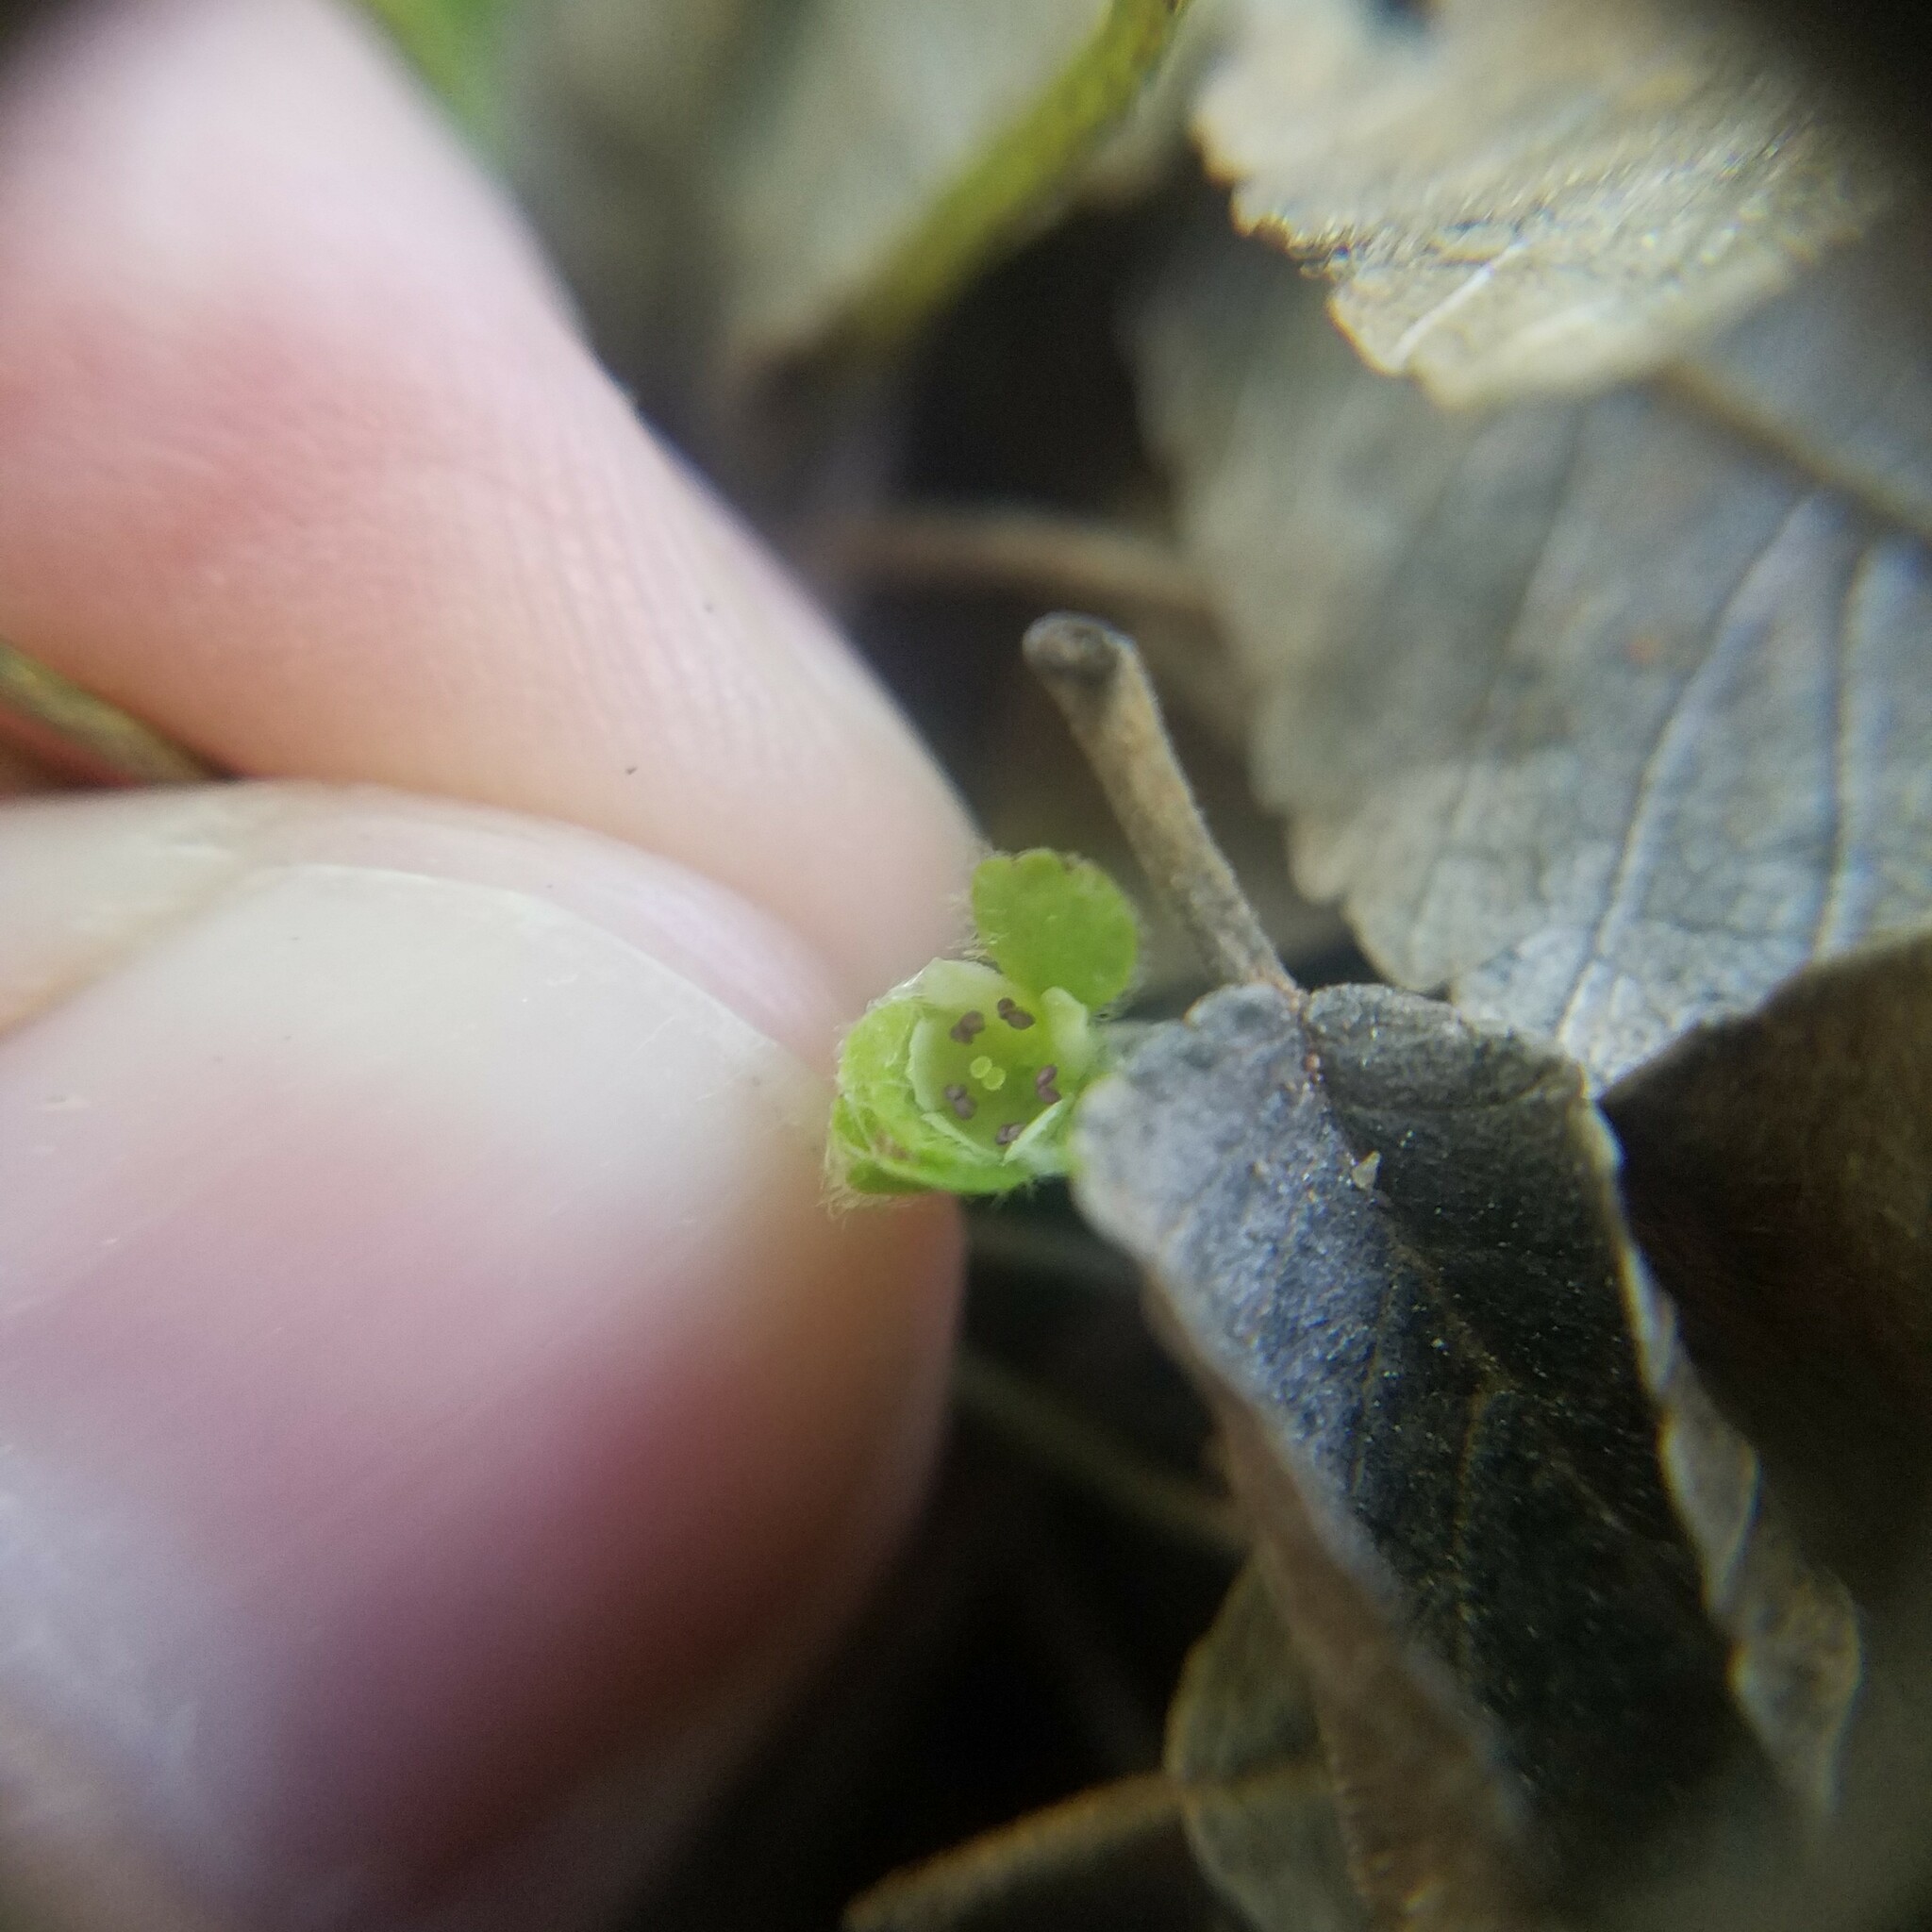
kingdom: Plantae
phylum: Tracheophyta
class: Magnoliopsida
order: Solanales
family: Convolvulaceae
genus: Dichondra
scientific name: Dichondra carolinensis
